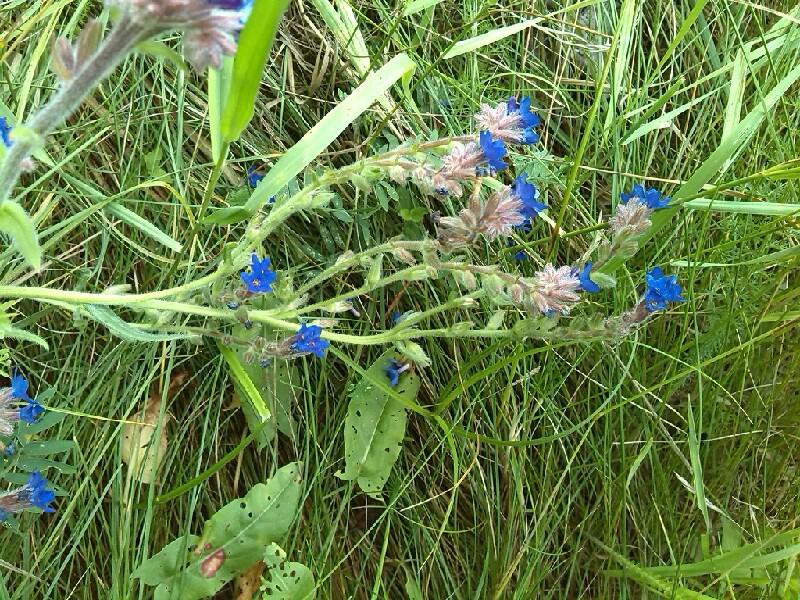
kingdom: Plantae
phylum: Tracheophyta
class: Magnoliopsida
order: Boraginales
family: Boraginaceae
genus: Anchusa
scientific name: Anchusa officinalis
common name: Alkanet
